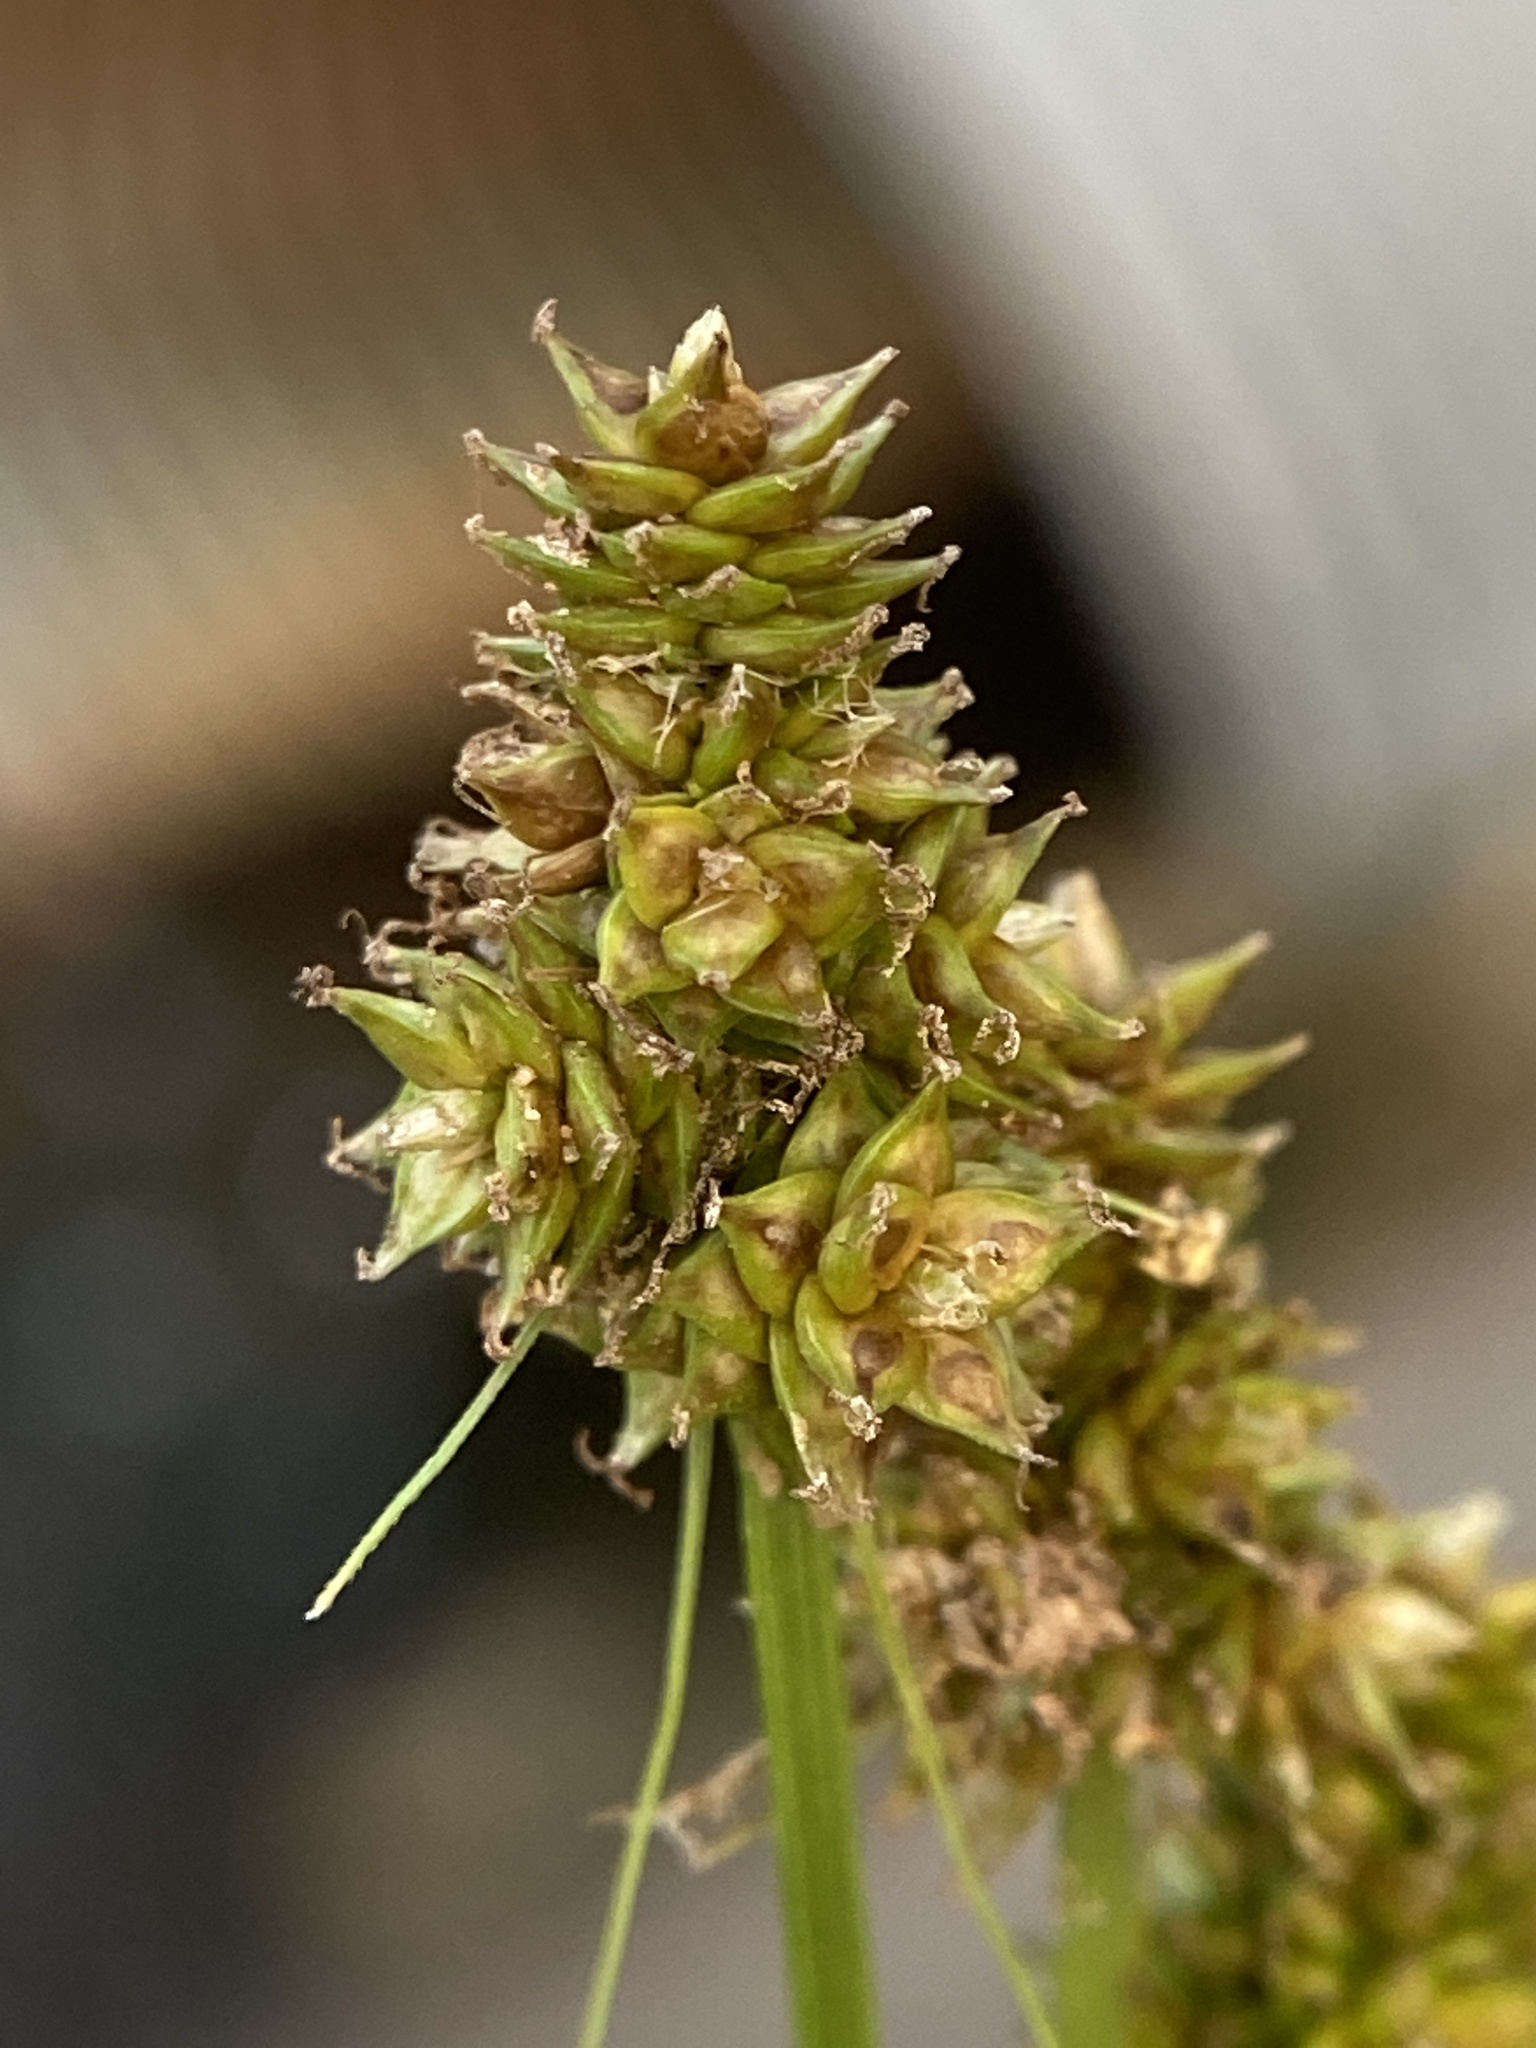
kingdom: Plantae
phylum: Tracheophyta
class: Liliopsida
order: Poales
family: Cyperaceae
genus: Carex
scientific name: Carex cephalophora
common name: Oval-headed sedge
